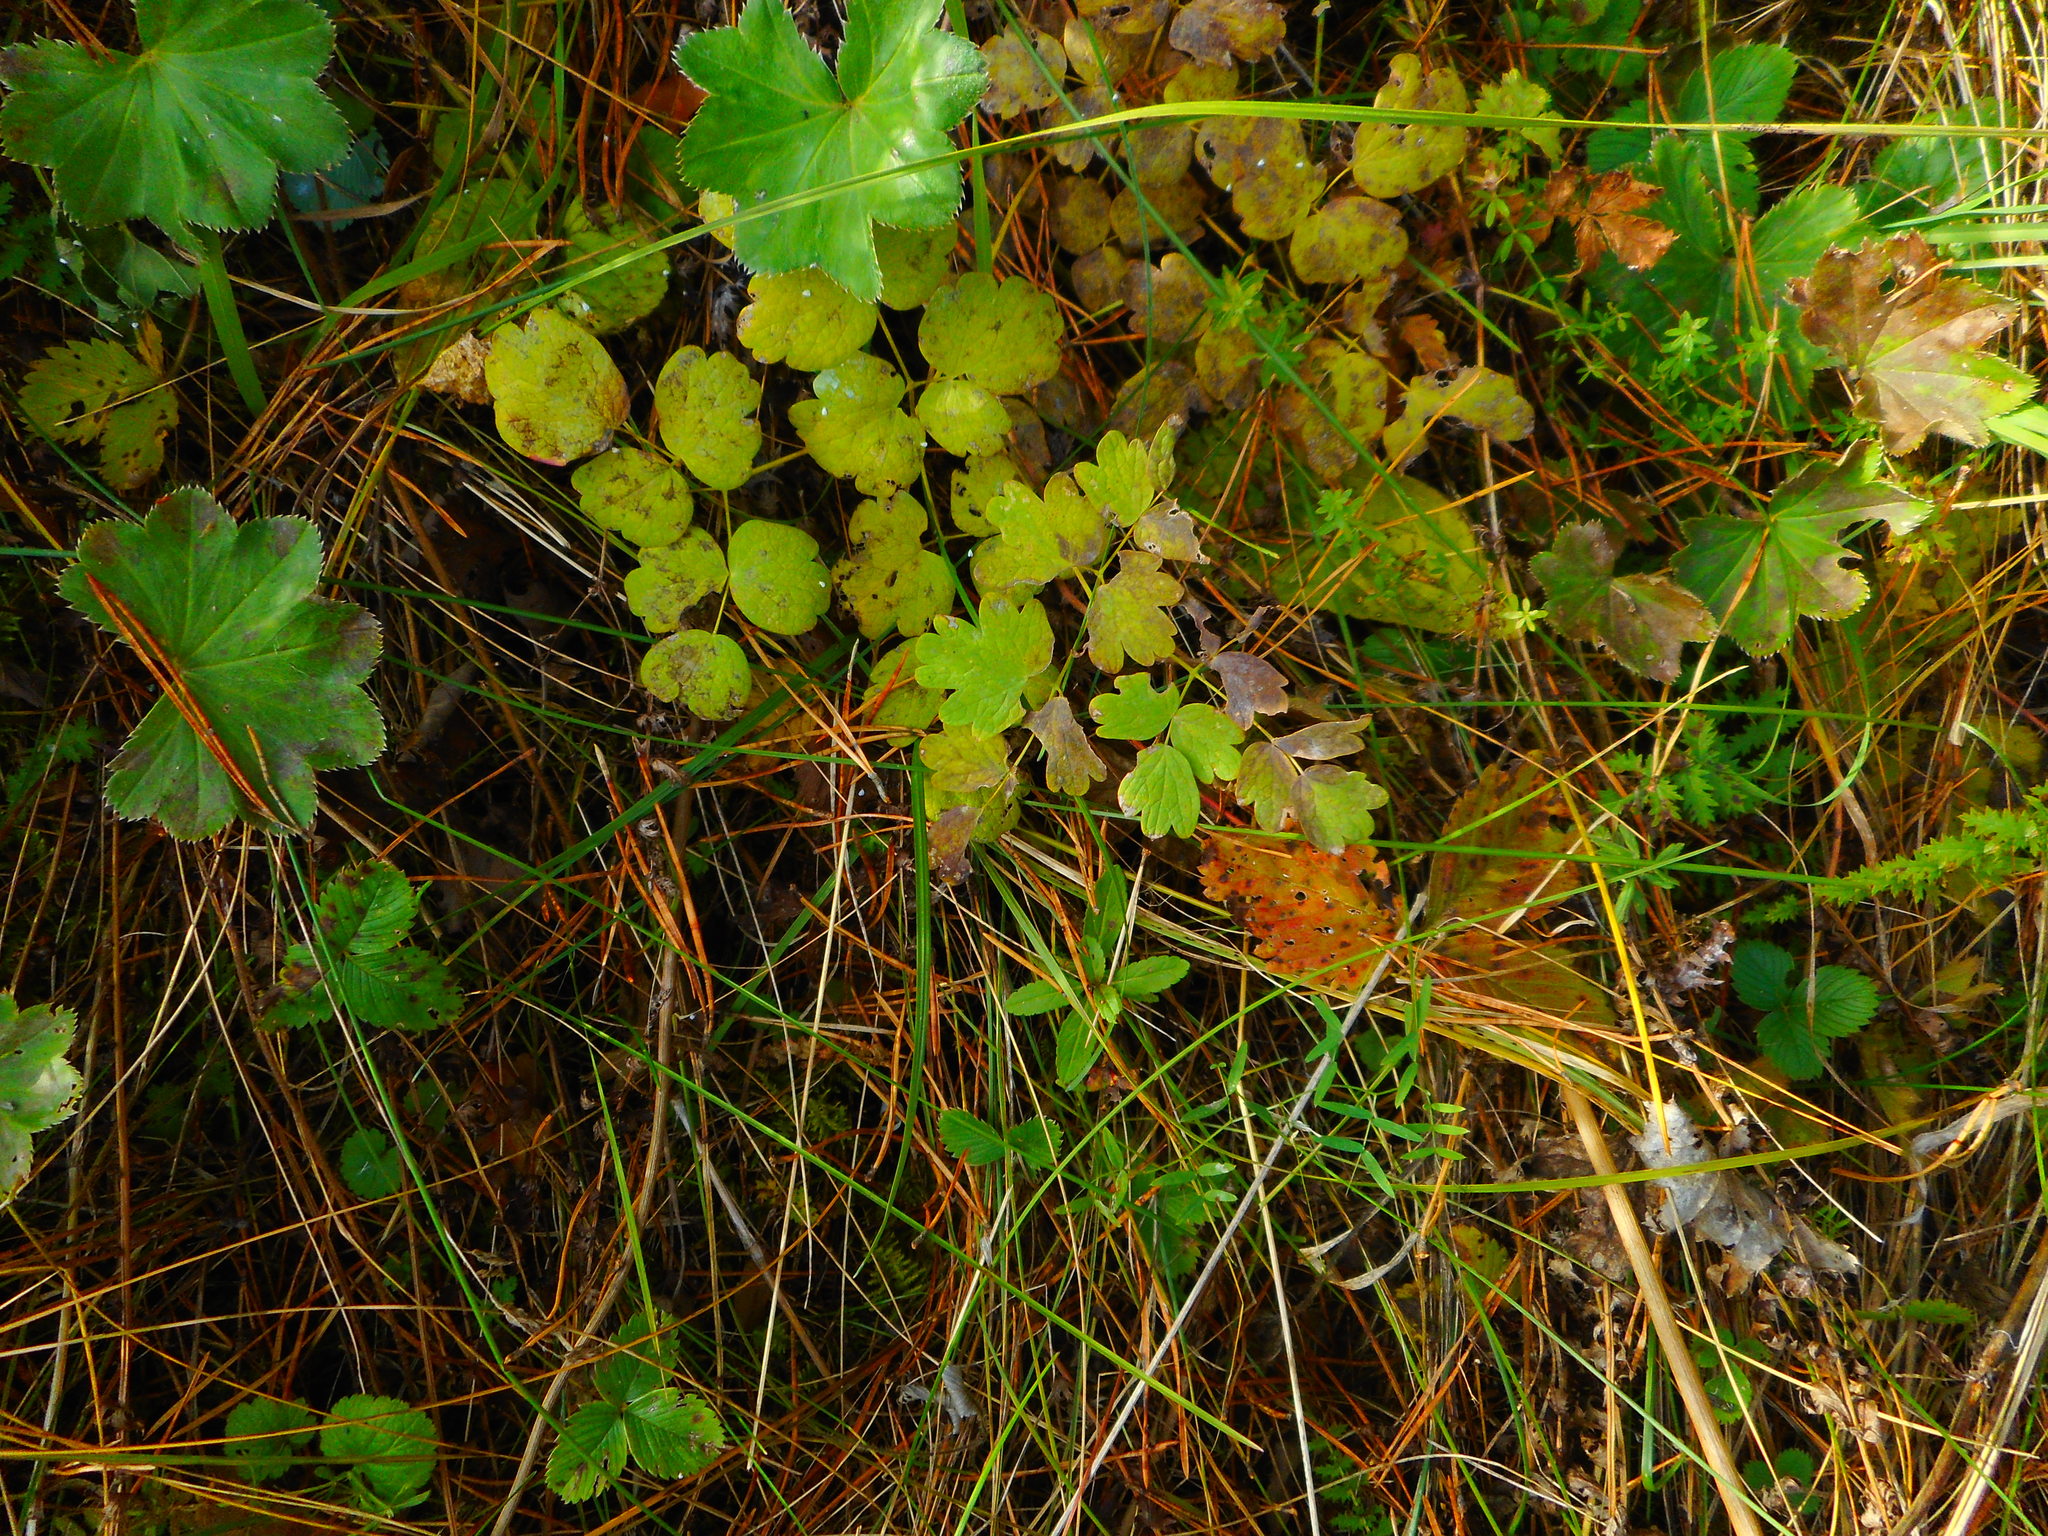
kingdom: Plantae
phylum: Tracheophyta
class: Magnoliopsida
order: Ranunculales
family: Ranunculaceae
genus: Thalictrum
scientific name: Thalictrum minus
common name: Lesser meadow-rue
